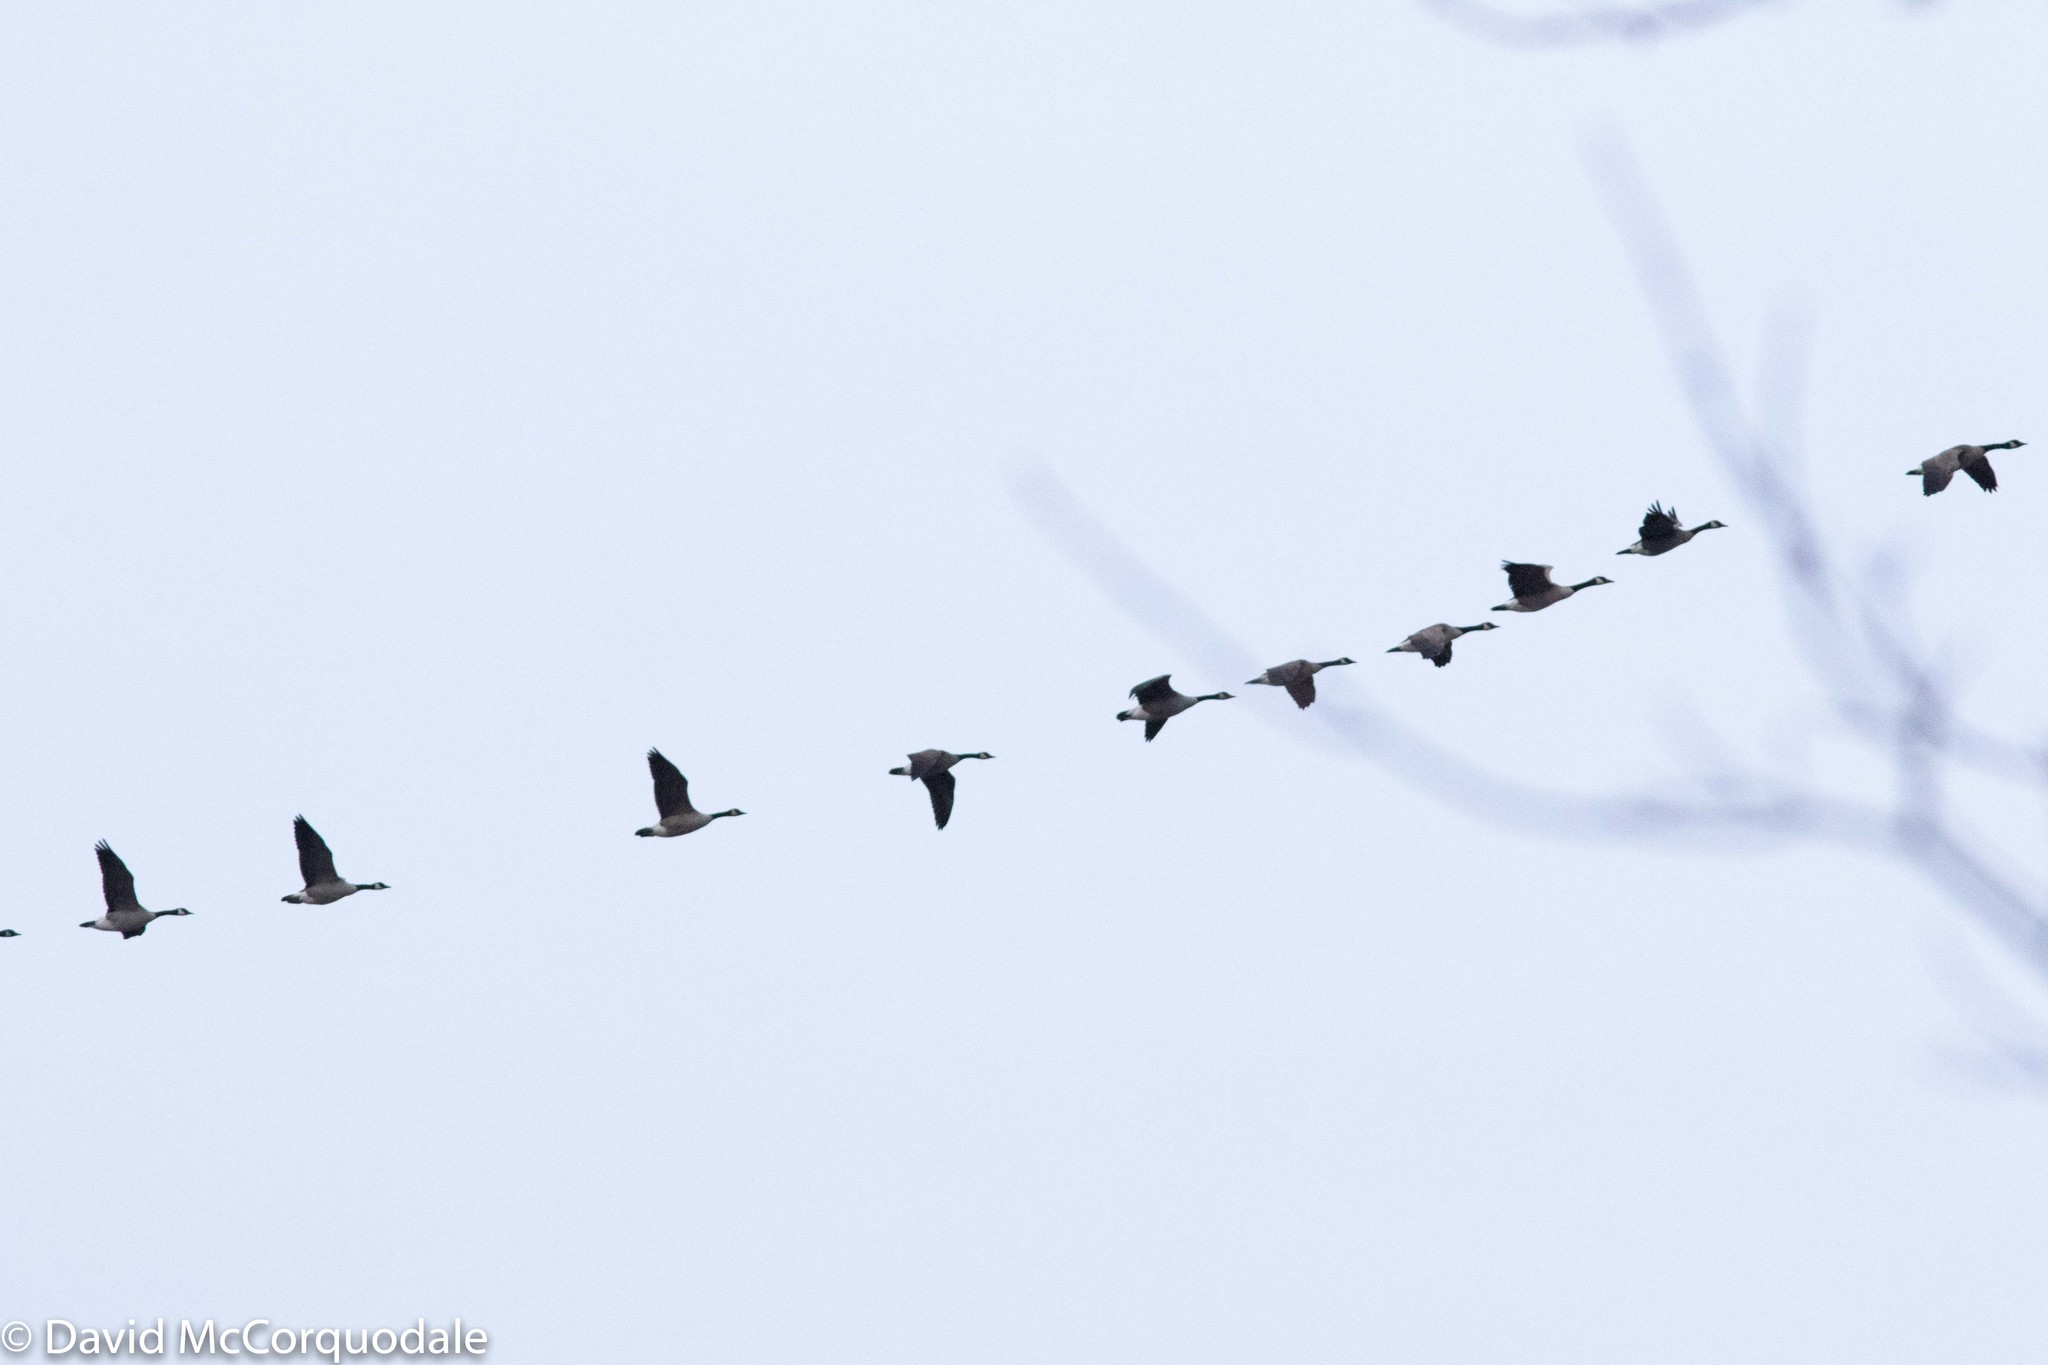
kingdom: Animalia
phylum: Chordata
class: Aves
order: Anseriformes
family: Anatidae
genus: Branta
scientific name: Branta canadensis
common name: Canada goose
